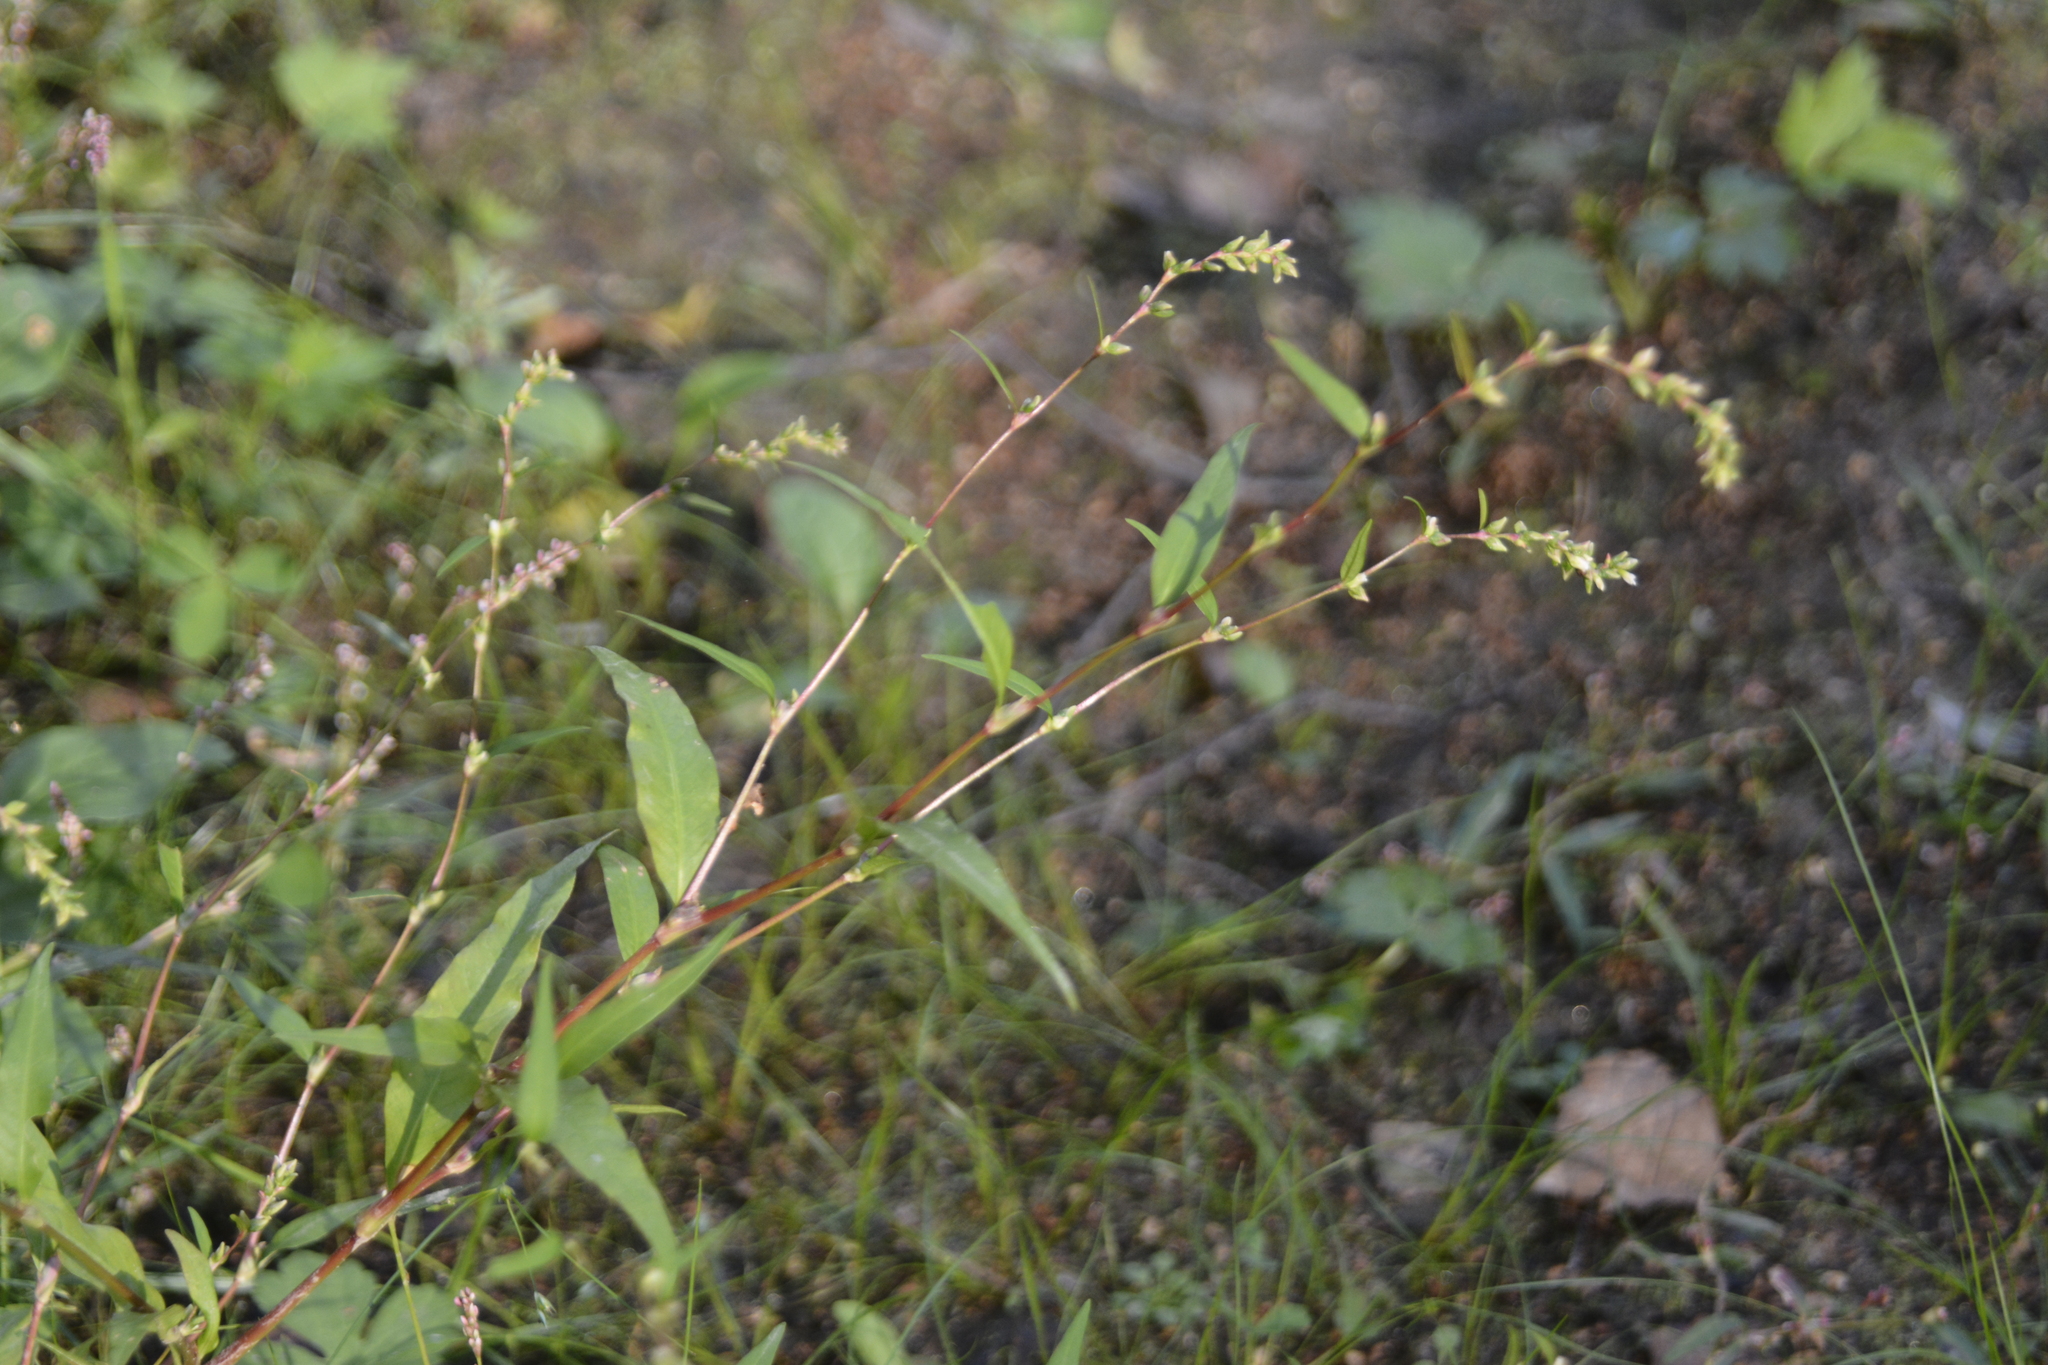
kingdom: Plantae
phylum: Tracheophyta
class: Magnoliopsida
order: Caryophyllales
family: Polygonaceae
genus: Persicaria
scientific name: Persicaria hydropiper
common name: Water-pepper
